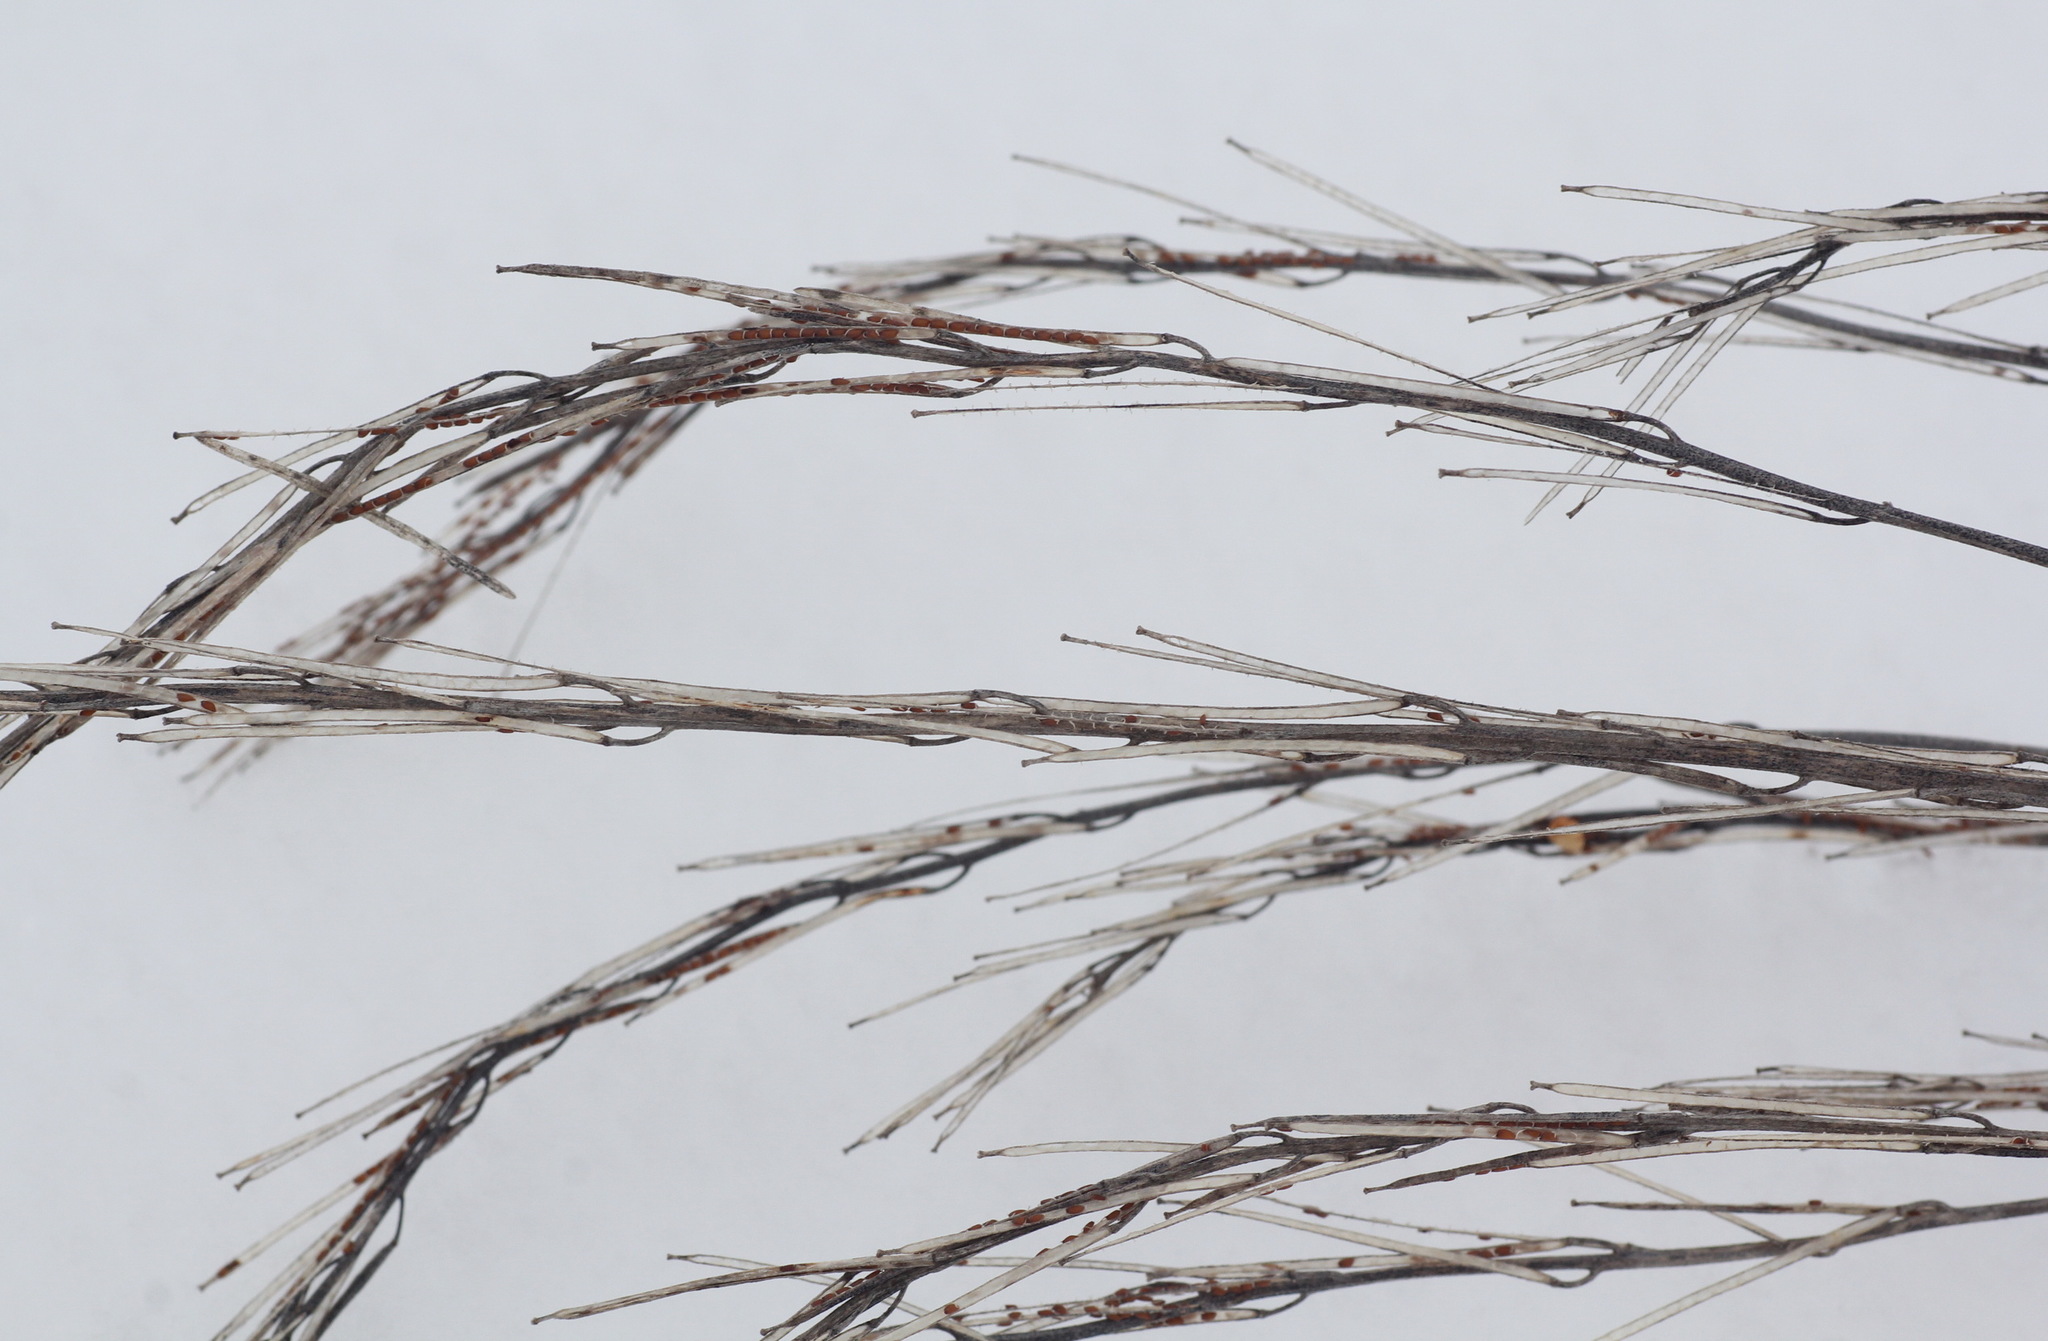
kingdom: Plantae
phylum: Tracheophyta
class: Magnoliopsida
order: Brassicales
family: Brassicaceae
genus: Erysimum
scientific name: Erysimum hieraciifolium
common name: European wallflower
